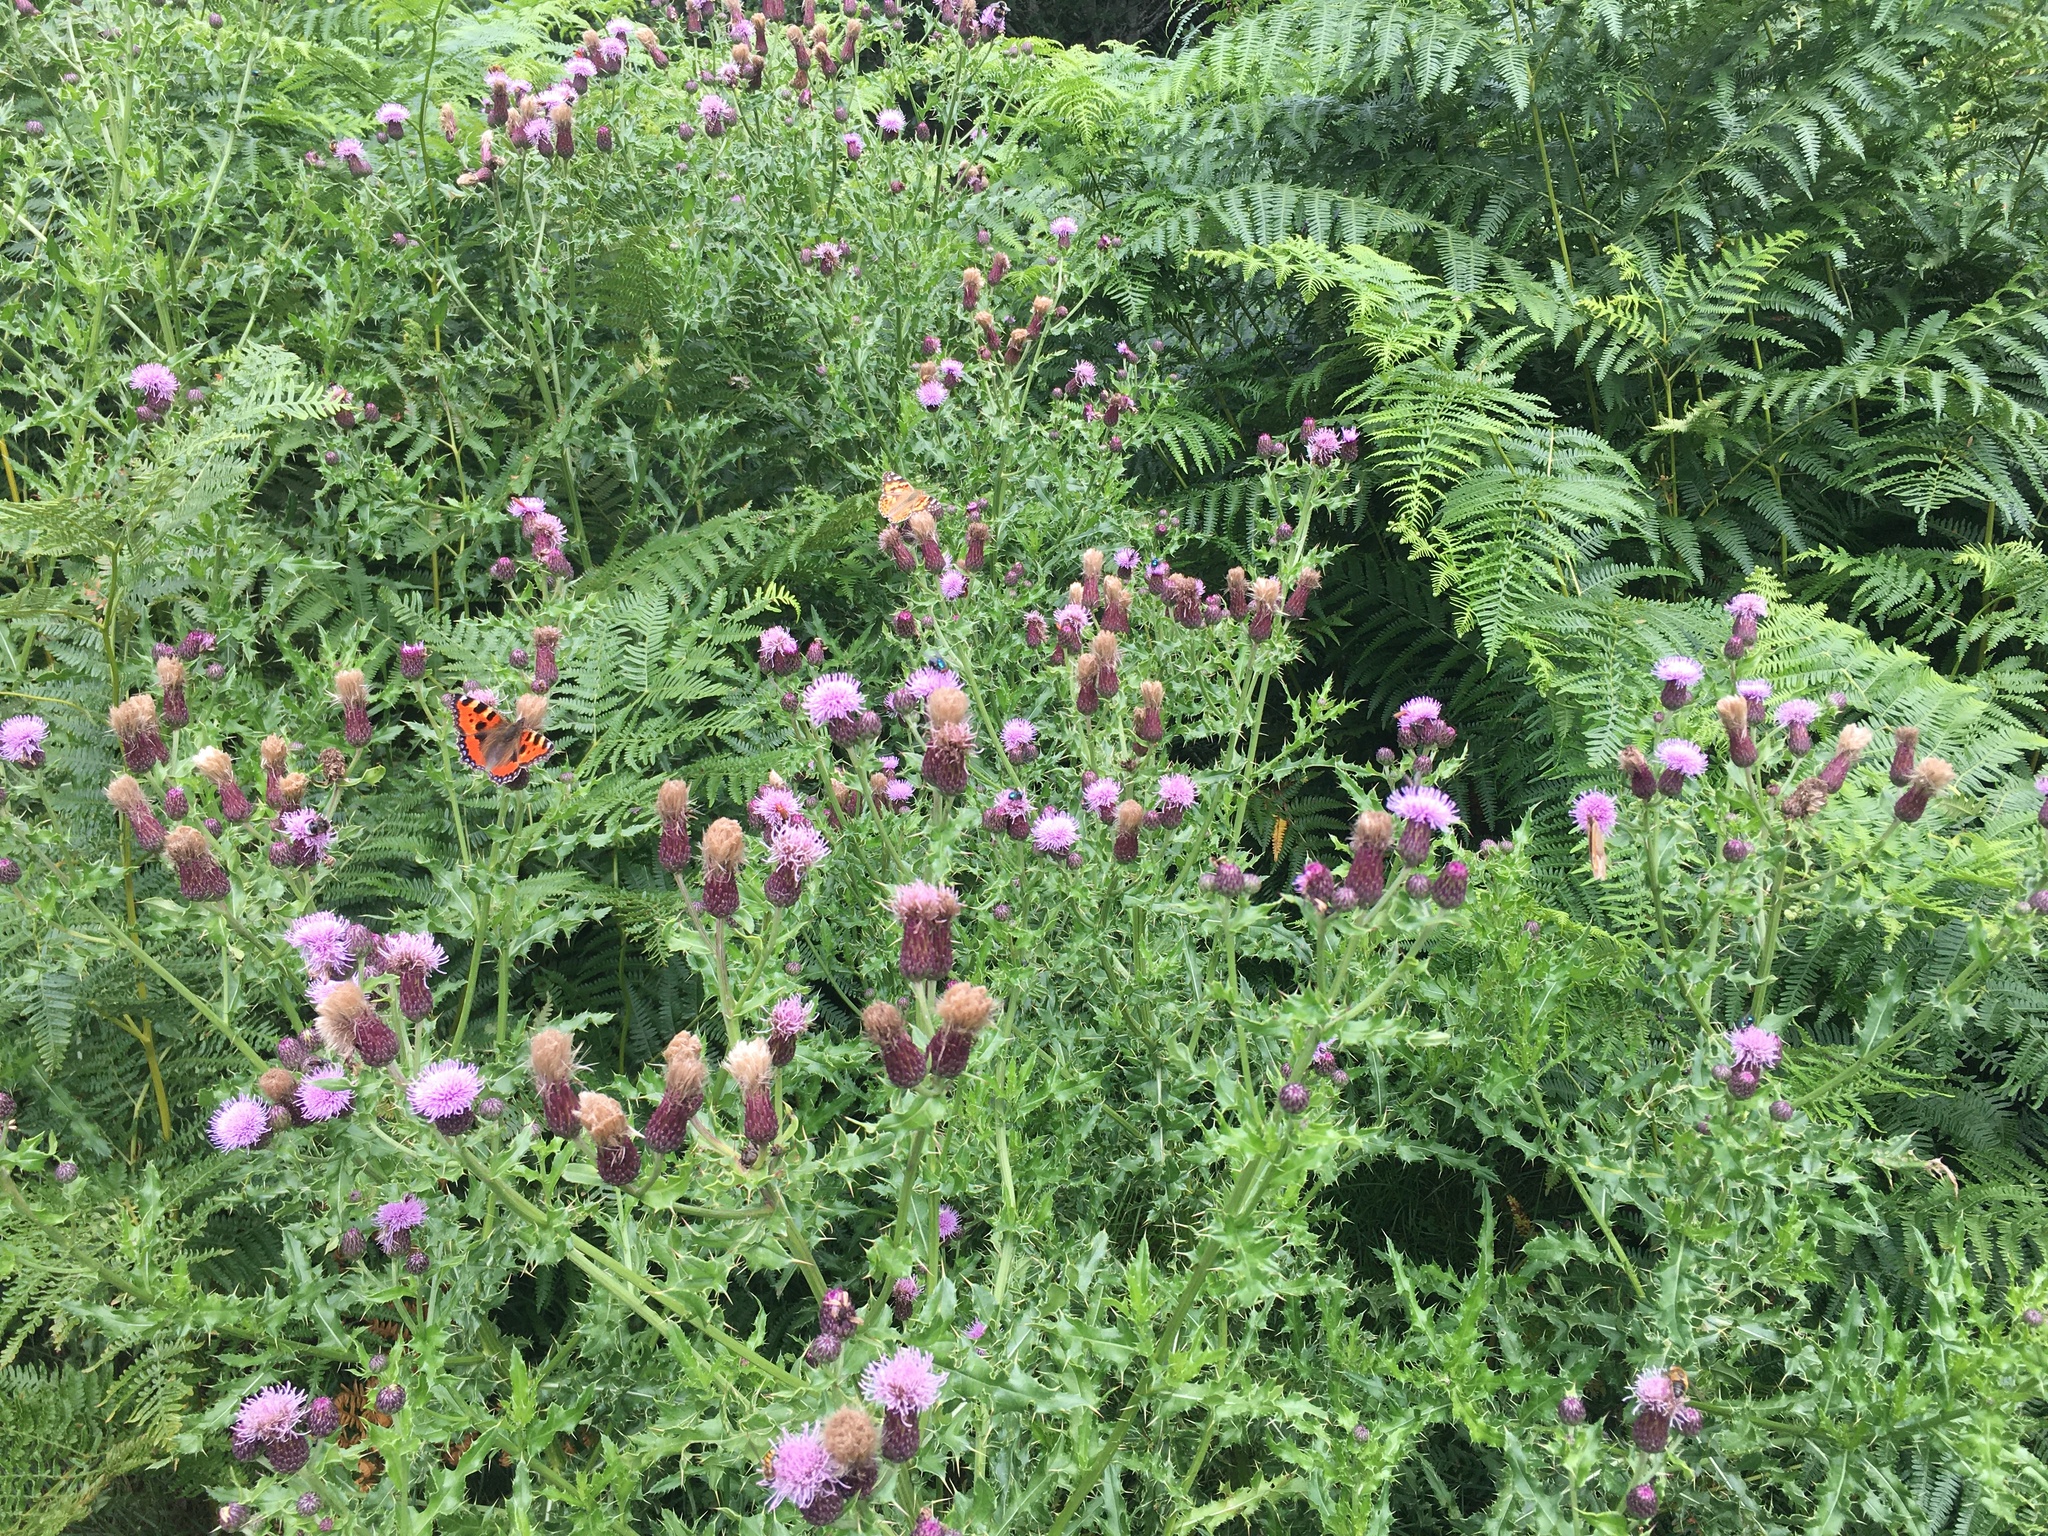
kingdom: Plantae
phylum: Tracheophyta
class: Magnoliopsida
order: Asterales
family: Asteraceae
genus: Cirsium
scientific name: Cirsium arvense
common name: Creeping thistle
